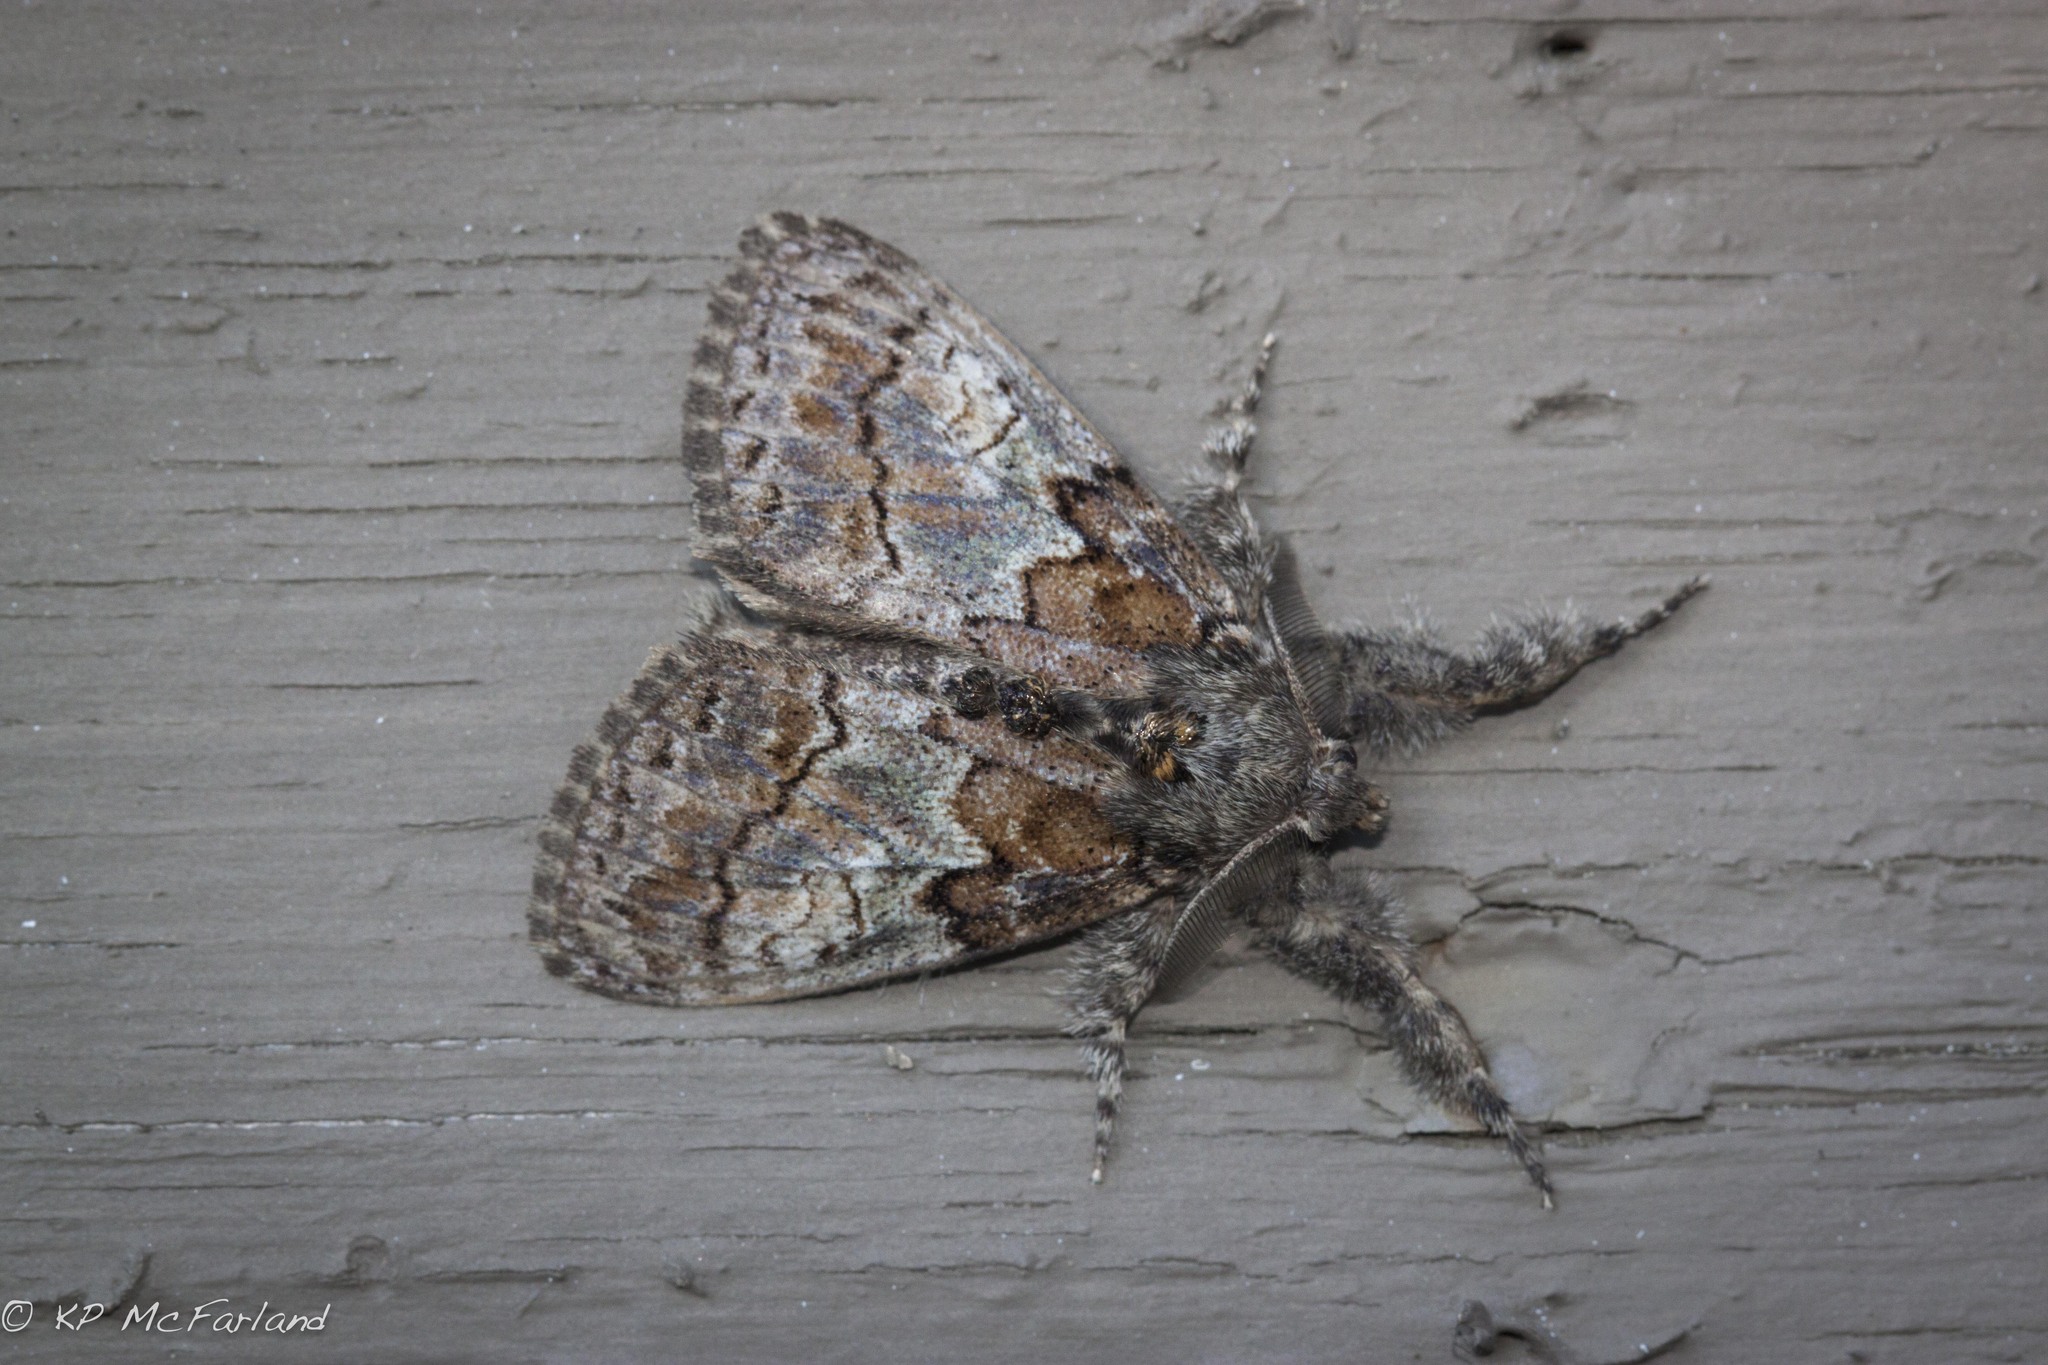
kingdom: Animalia
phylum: Arthropoda
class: Insecta
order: Lepidoptera
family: Erebidae
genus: Dasychira
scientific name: Dasychira plagiata
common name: Northern pine tussock moth
